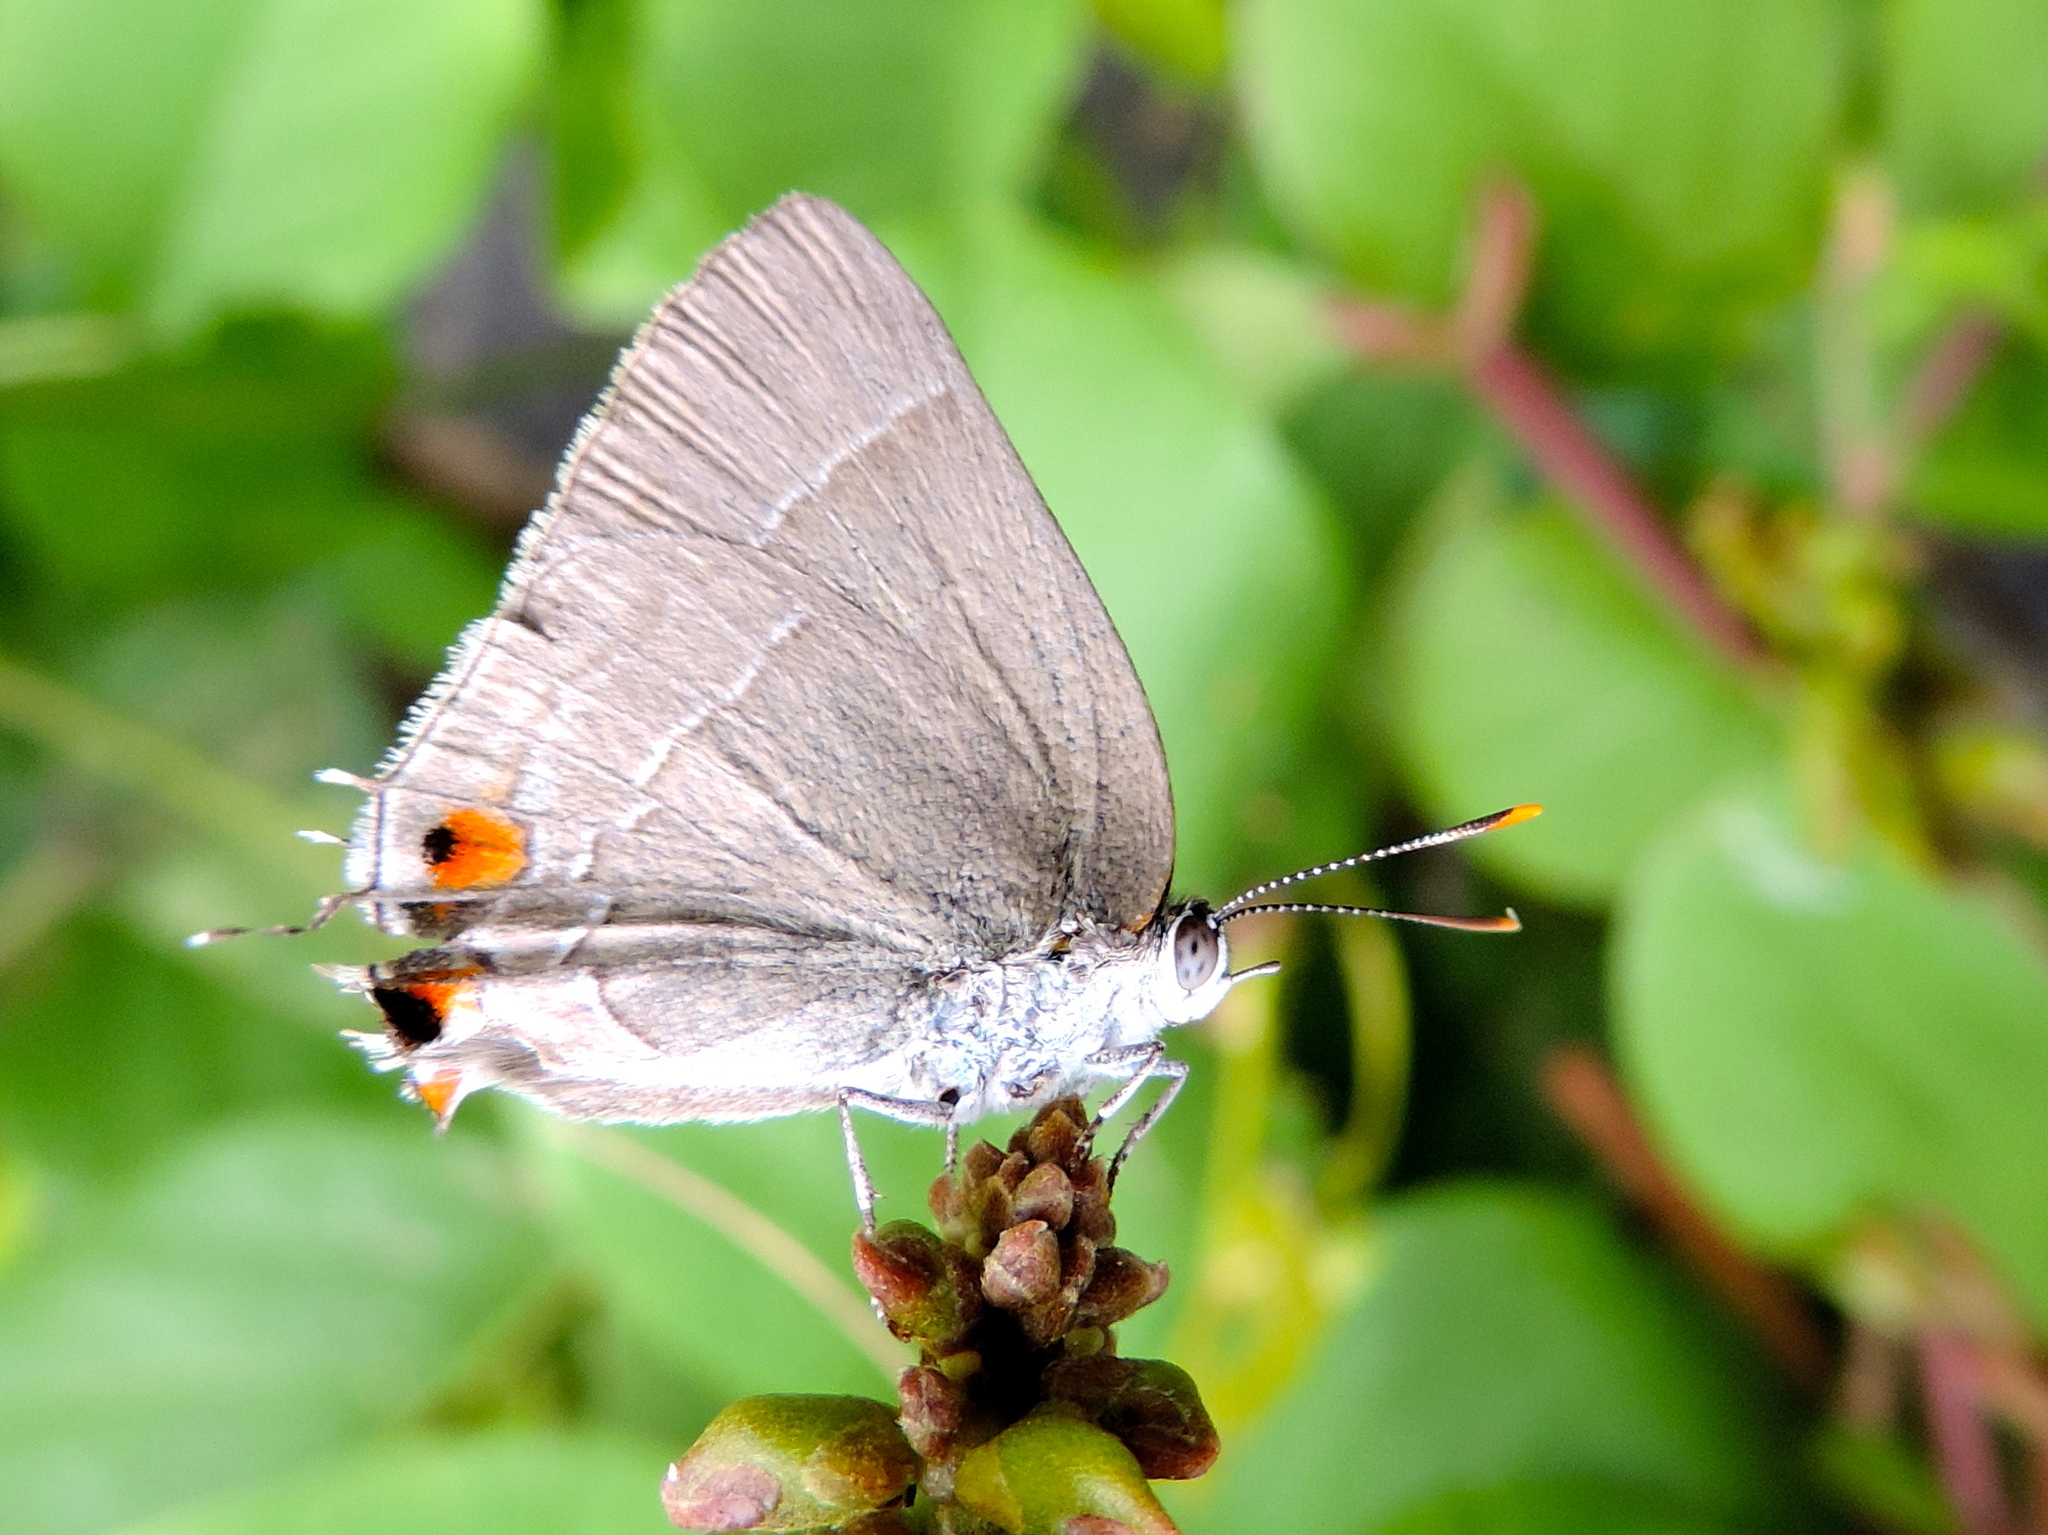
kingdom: Animalia
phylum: Arthropoda
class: Insecta
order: Lepidoptera
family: Lycaenidae
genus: Thecla
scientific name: Thecla marius
